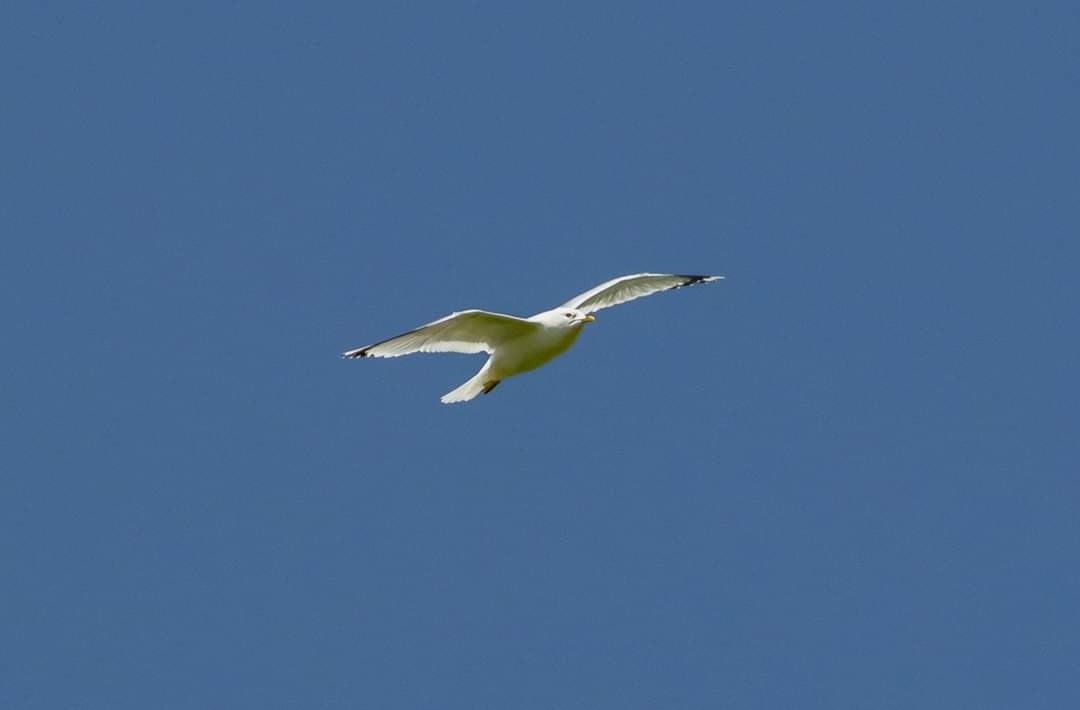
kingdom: Animalia
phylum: Chordata
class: Aves
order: Charadriiformes
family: Laridae
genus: Larus
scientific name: Larus canus
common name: Mew gull
